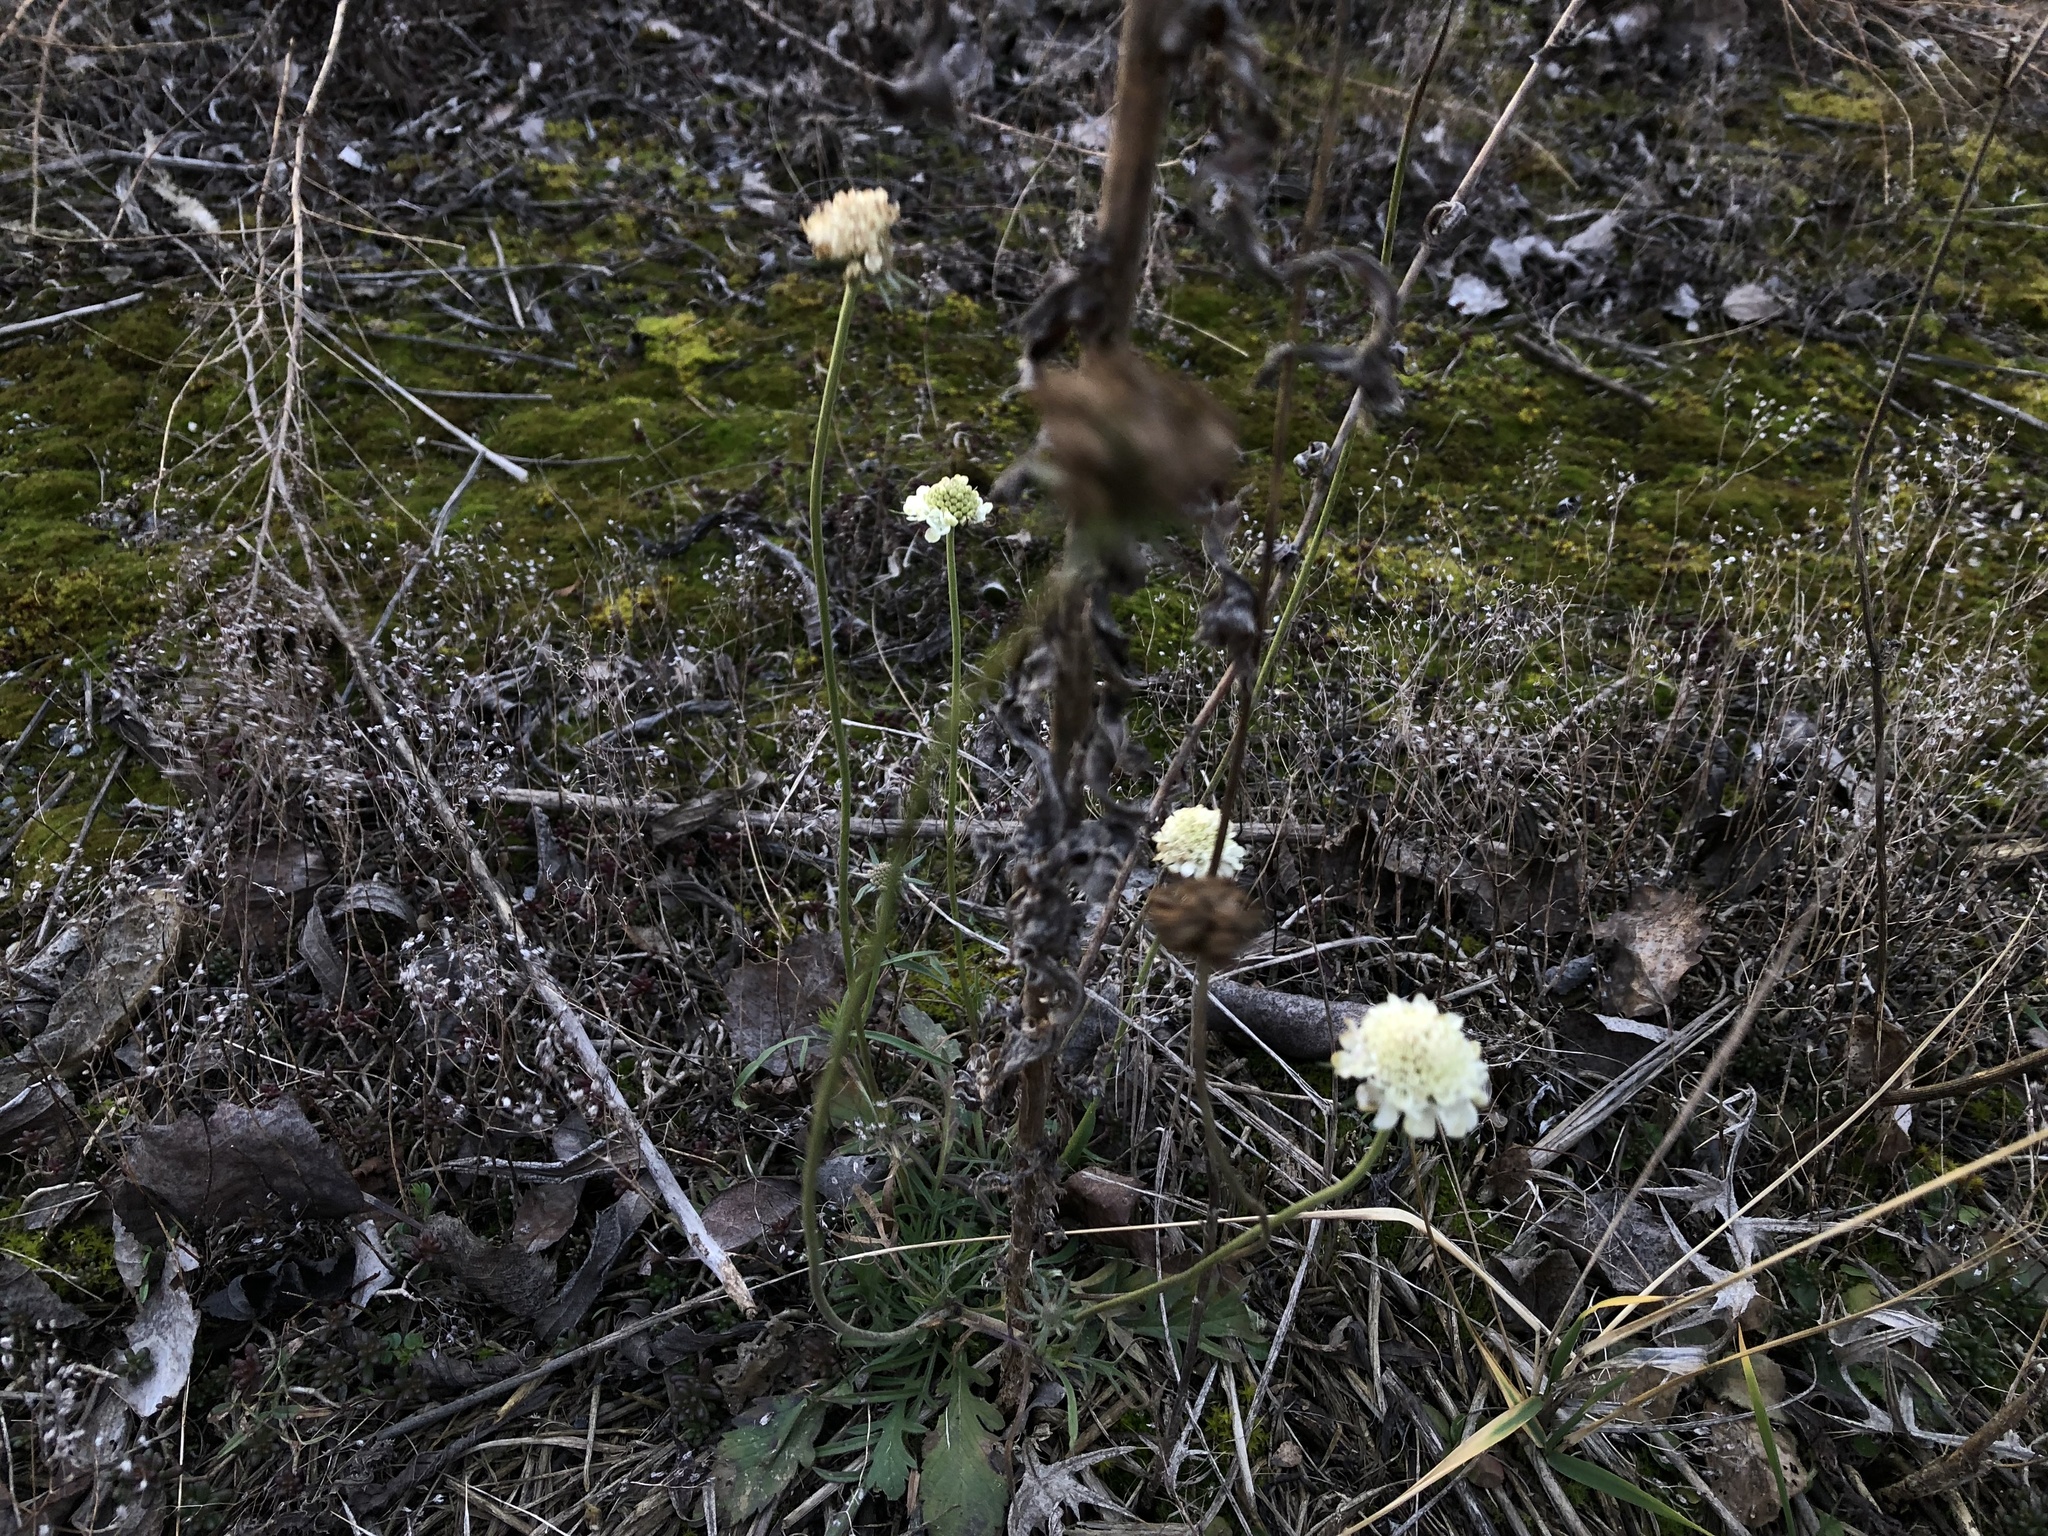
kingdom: Plantae
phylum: Tracheophyta
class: Magnoliopsida
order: Dipsacales
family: Caprifoliaceae
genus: Scabiosa
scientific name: Scabiosa ochroleuca
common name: Cream pincushions
